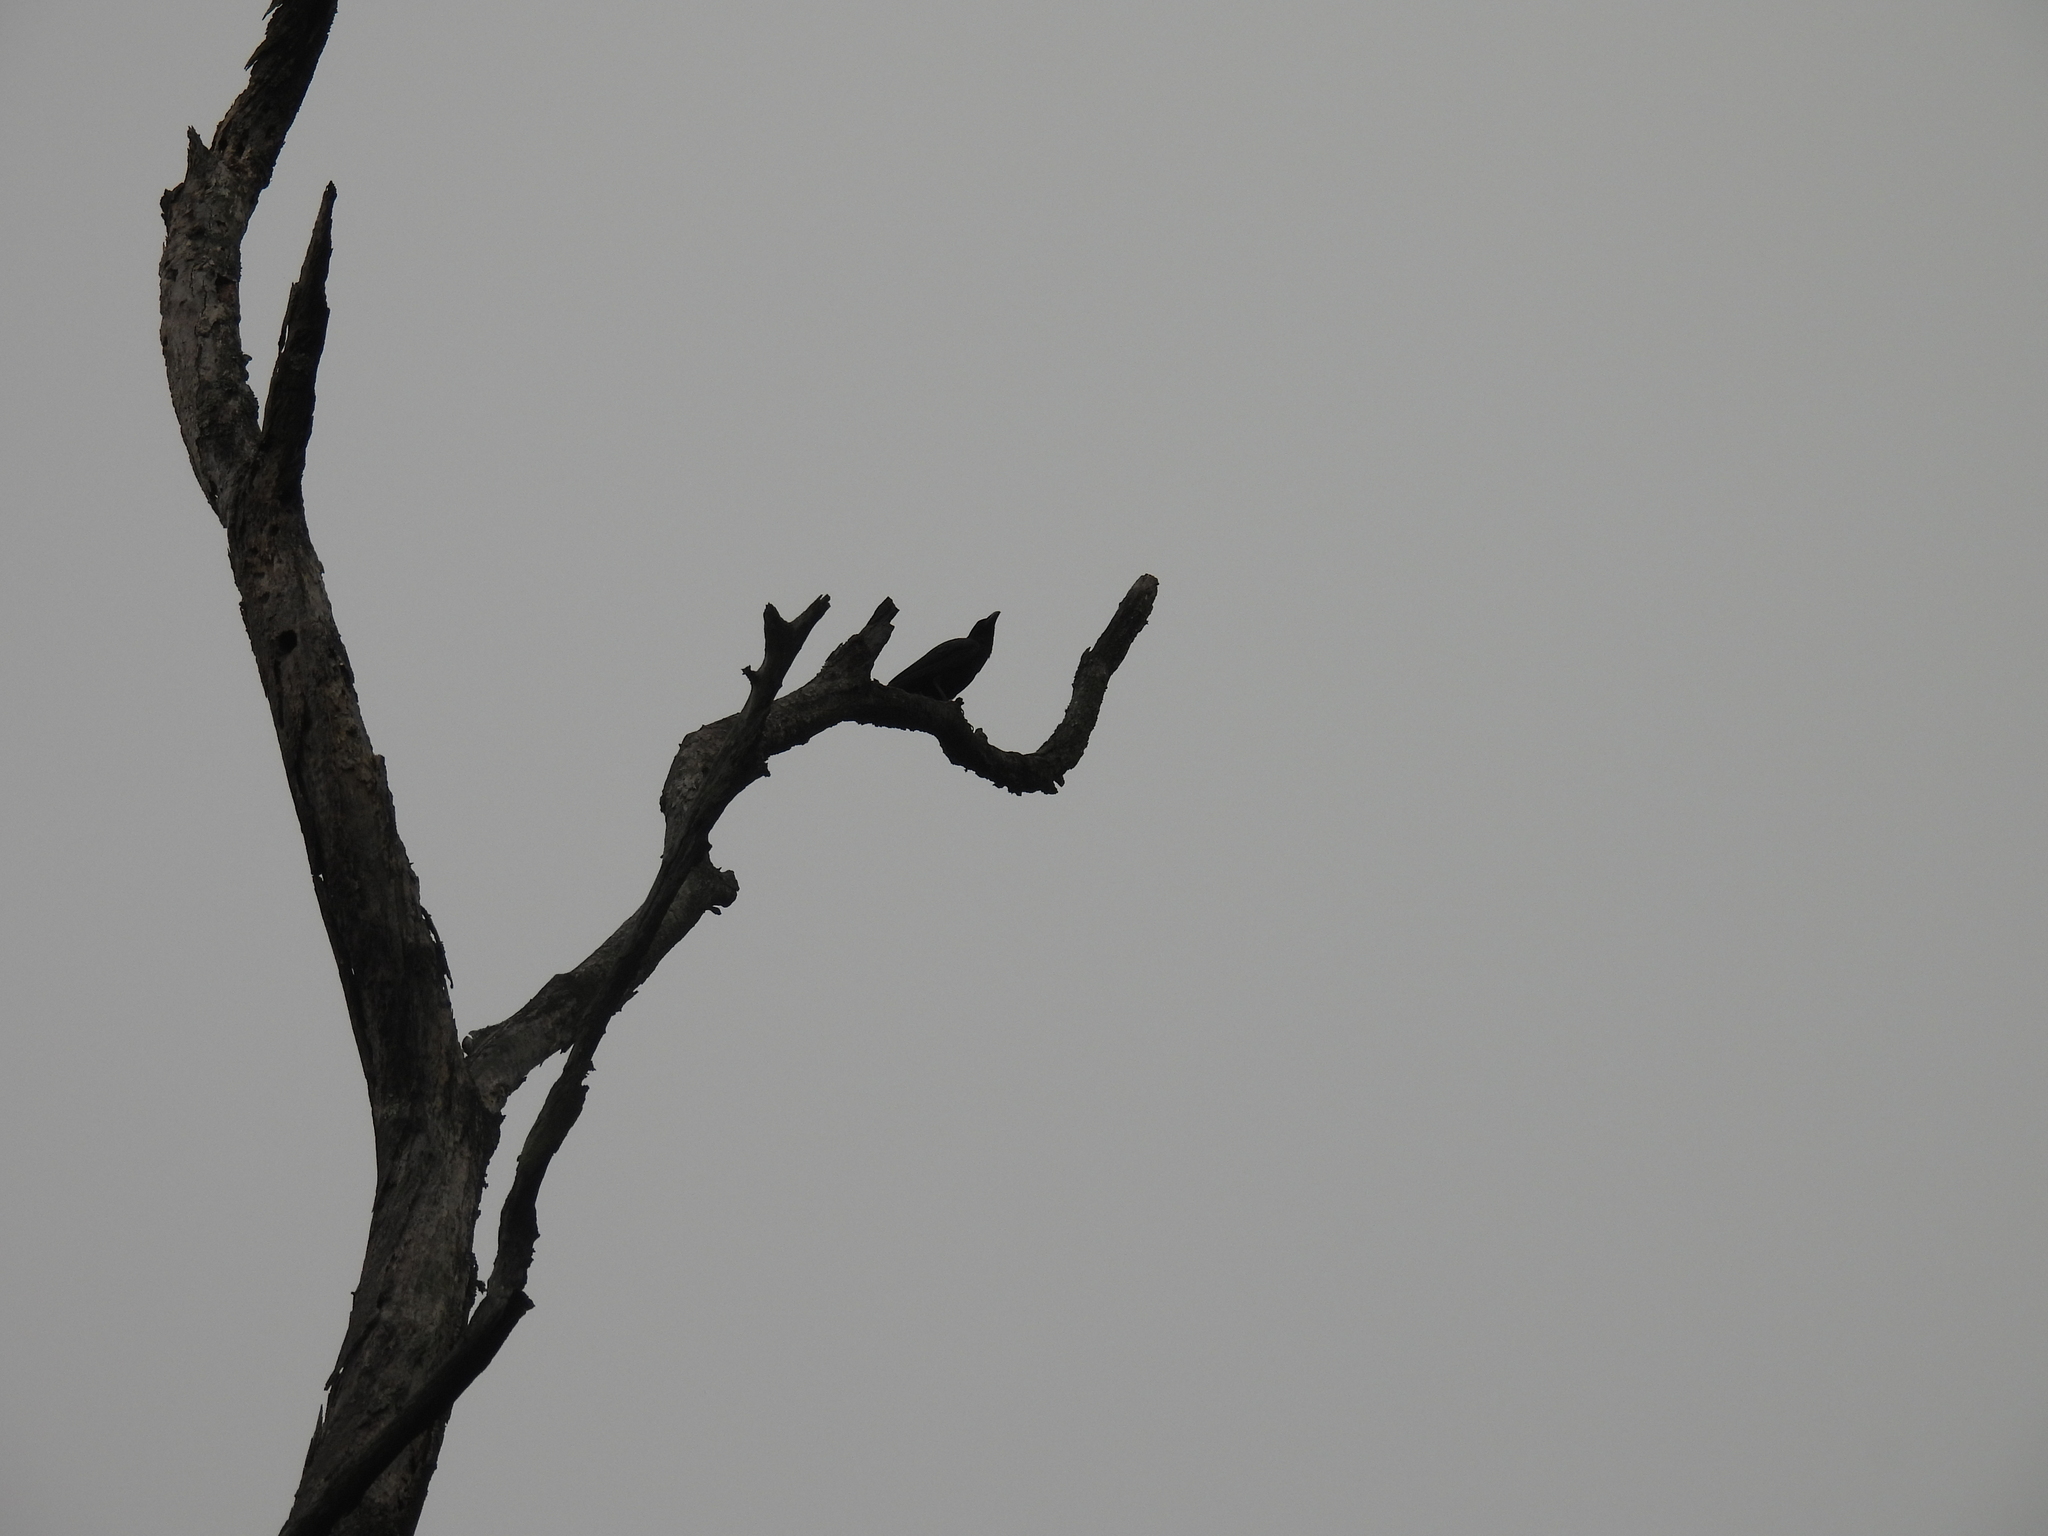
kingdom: Animalia
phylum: Chordata
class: Aves
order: Passeriformes
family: Corvidae
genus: Corvus
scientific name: Corvus macrorhynchos
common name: Large-billed crow
